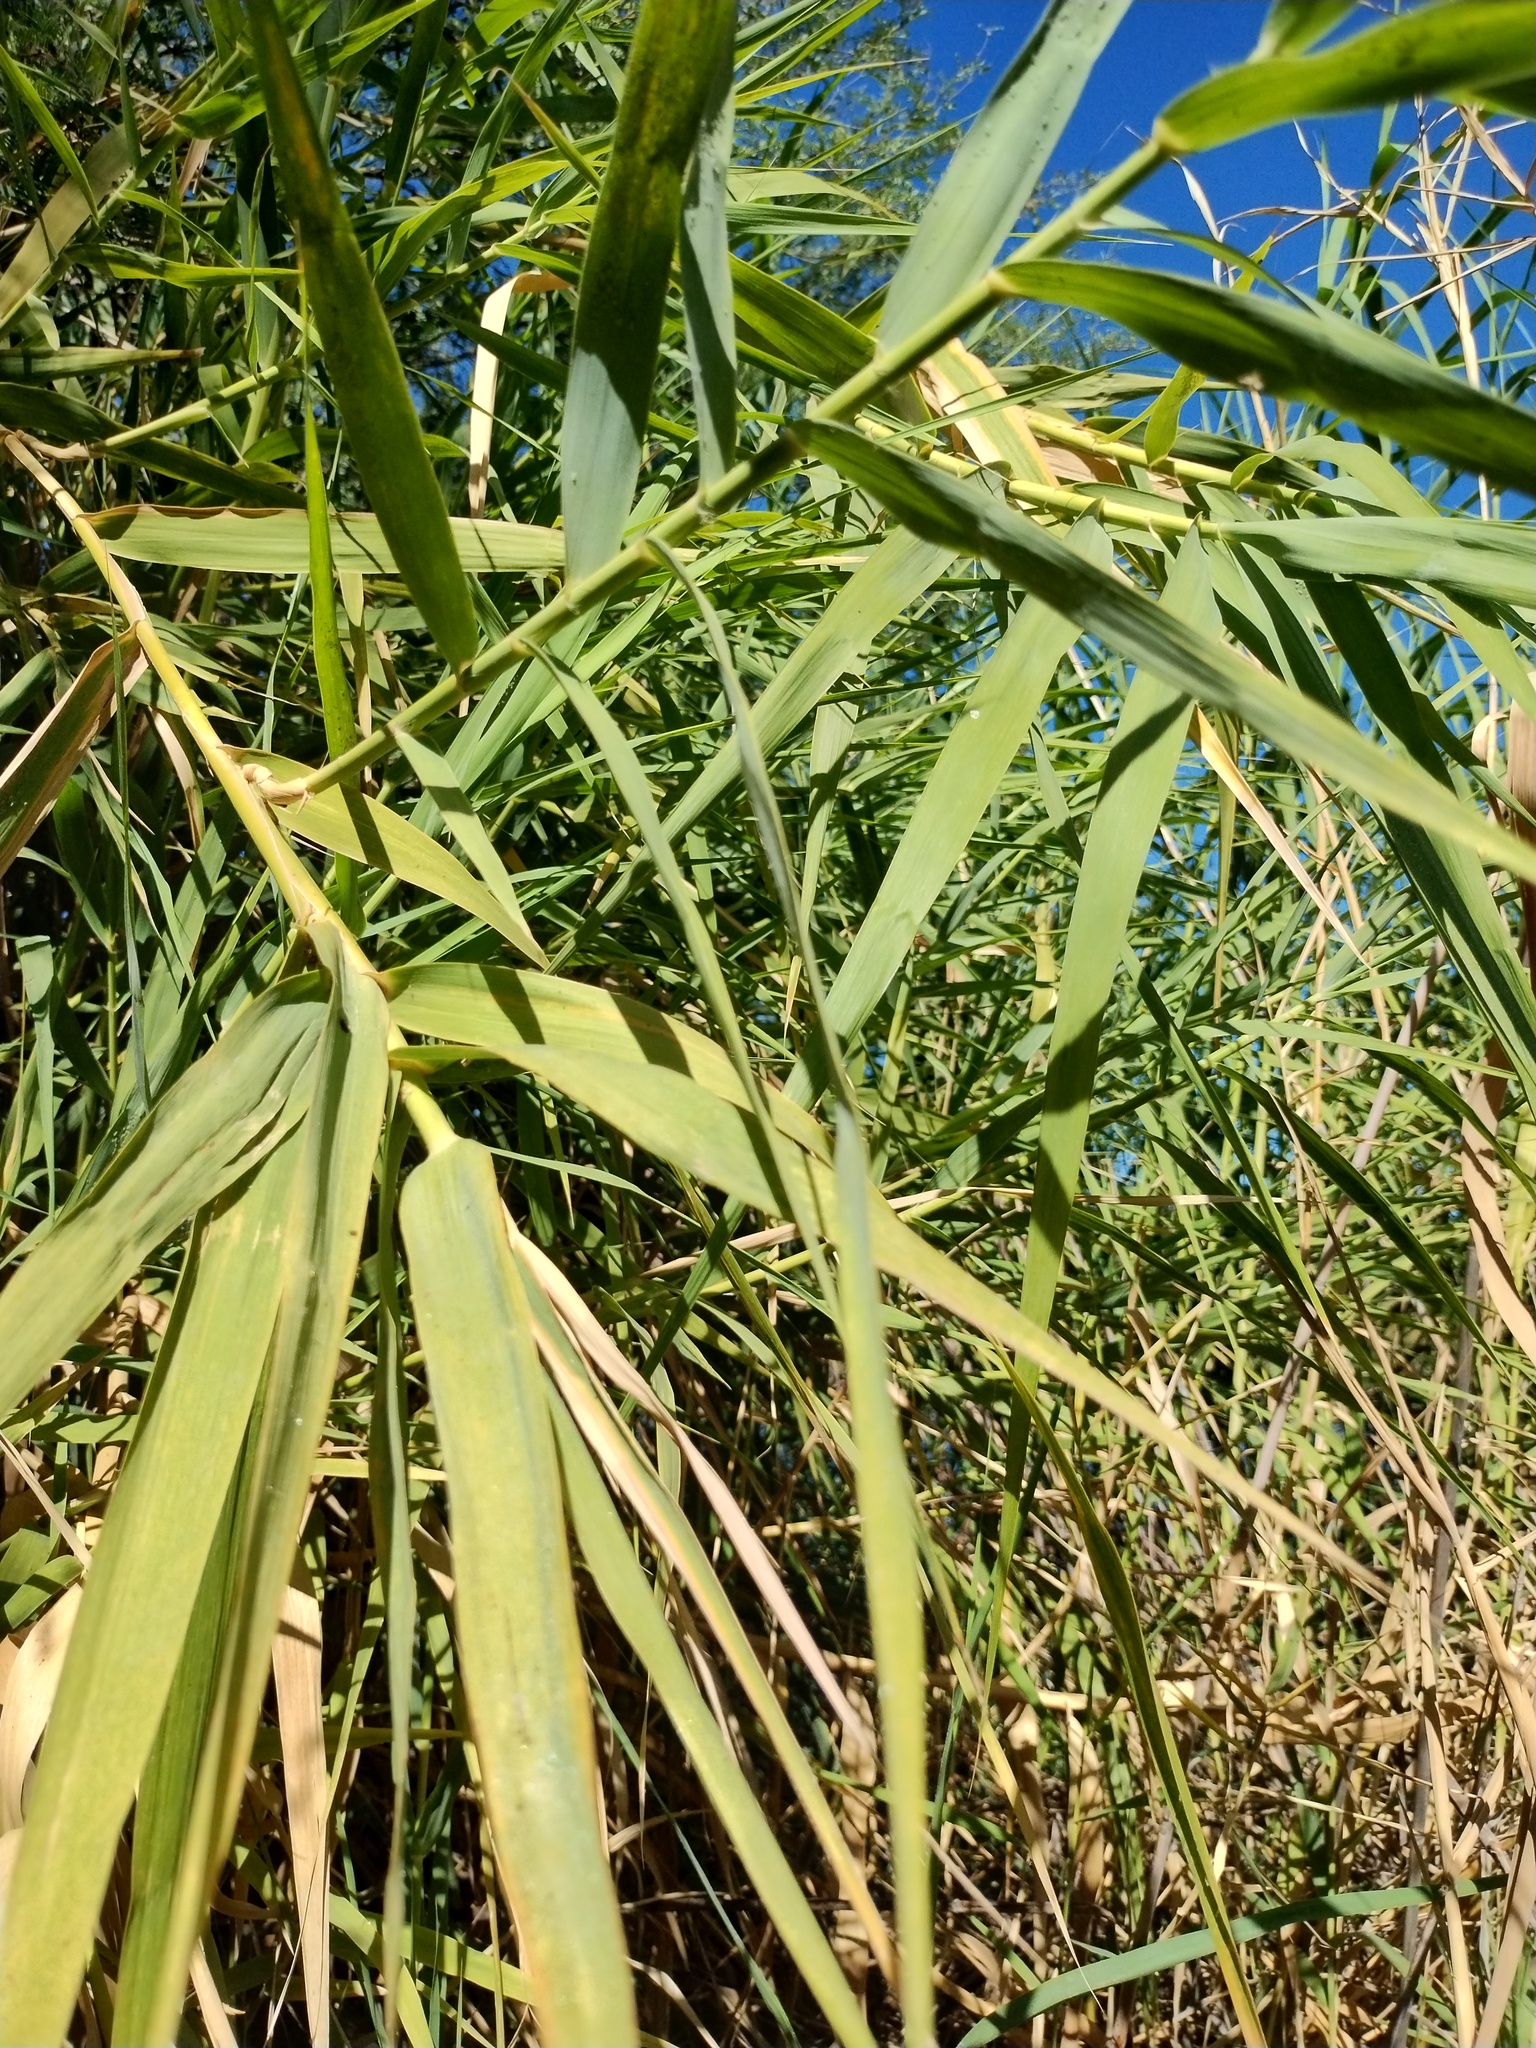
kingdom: Plantae
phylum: Tracheophyta
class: Liliopsida
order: Poales
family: Poaceae
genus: Arundo
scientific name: Arundo donax
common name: Giant reed
